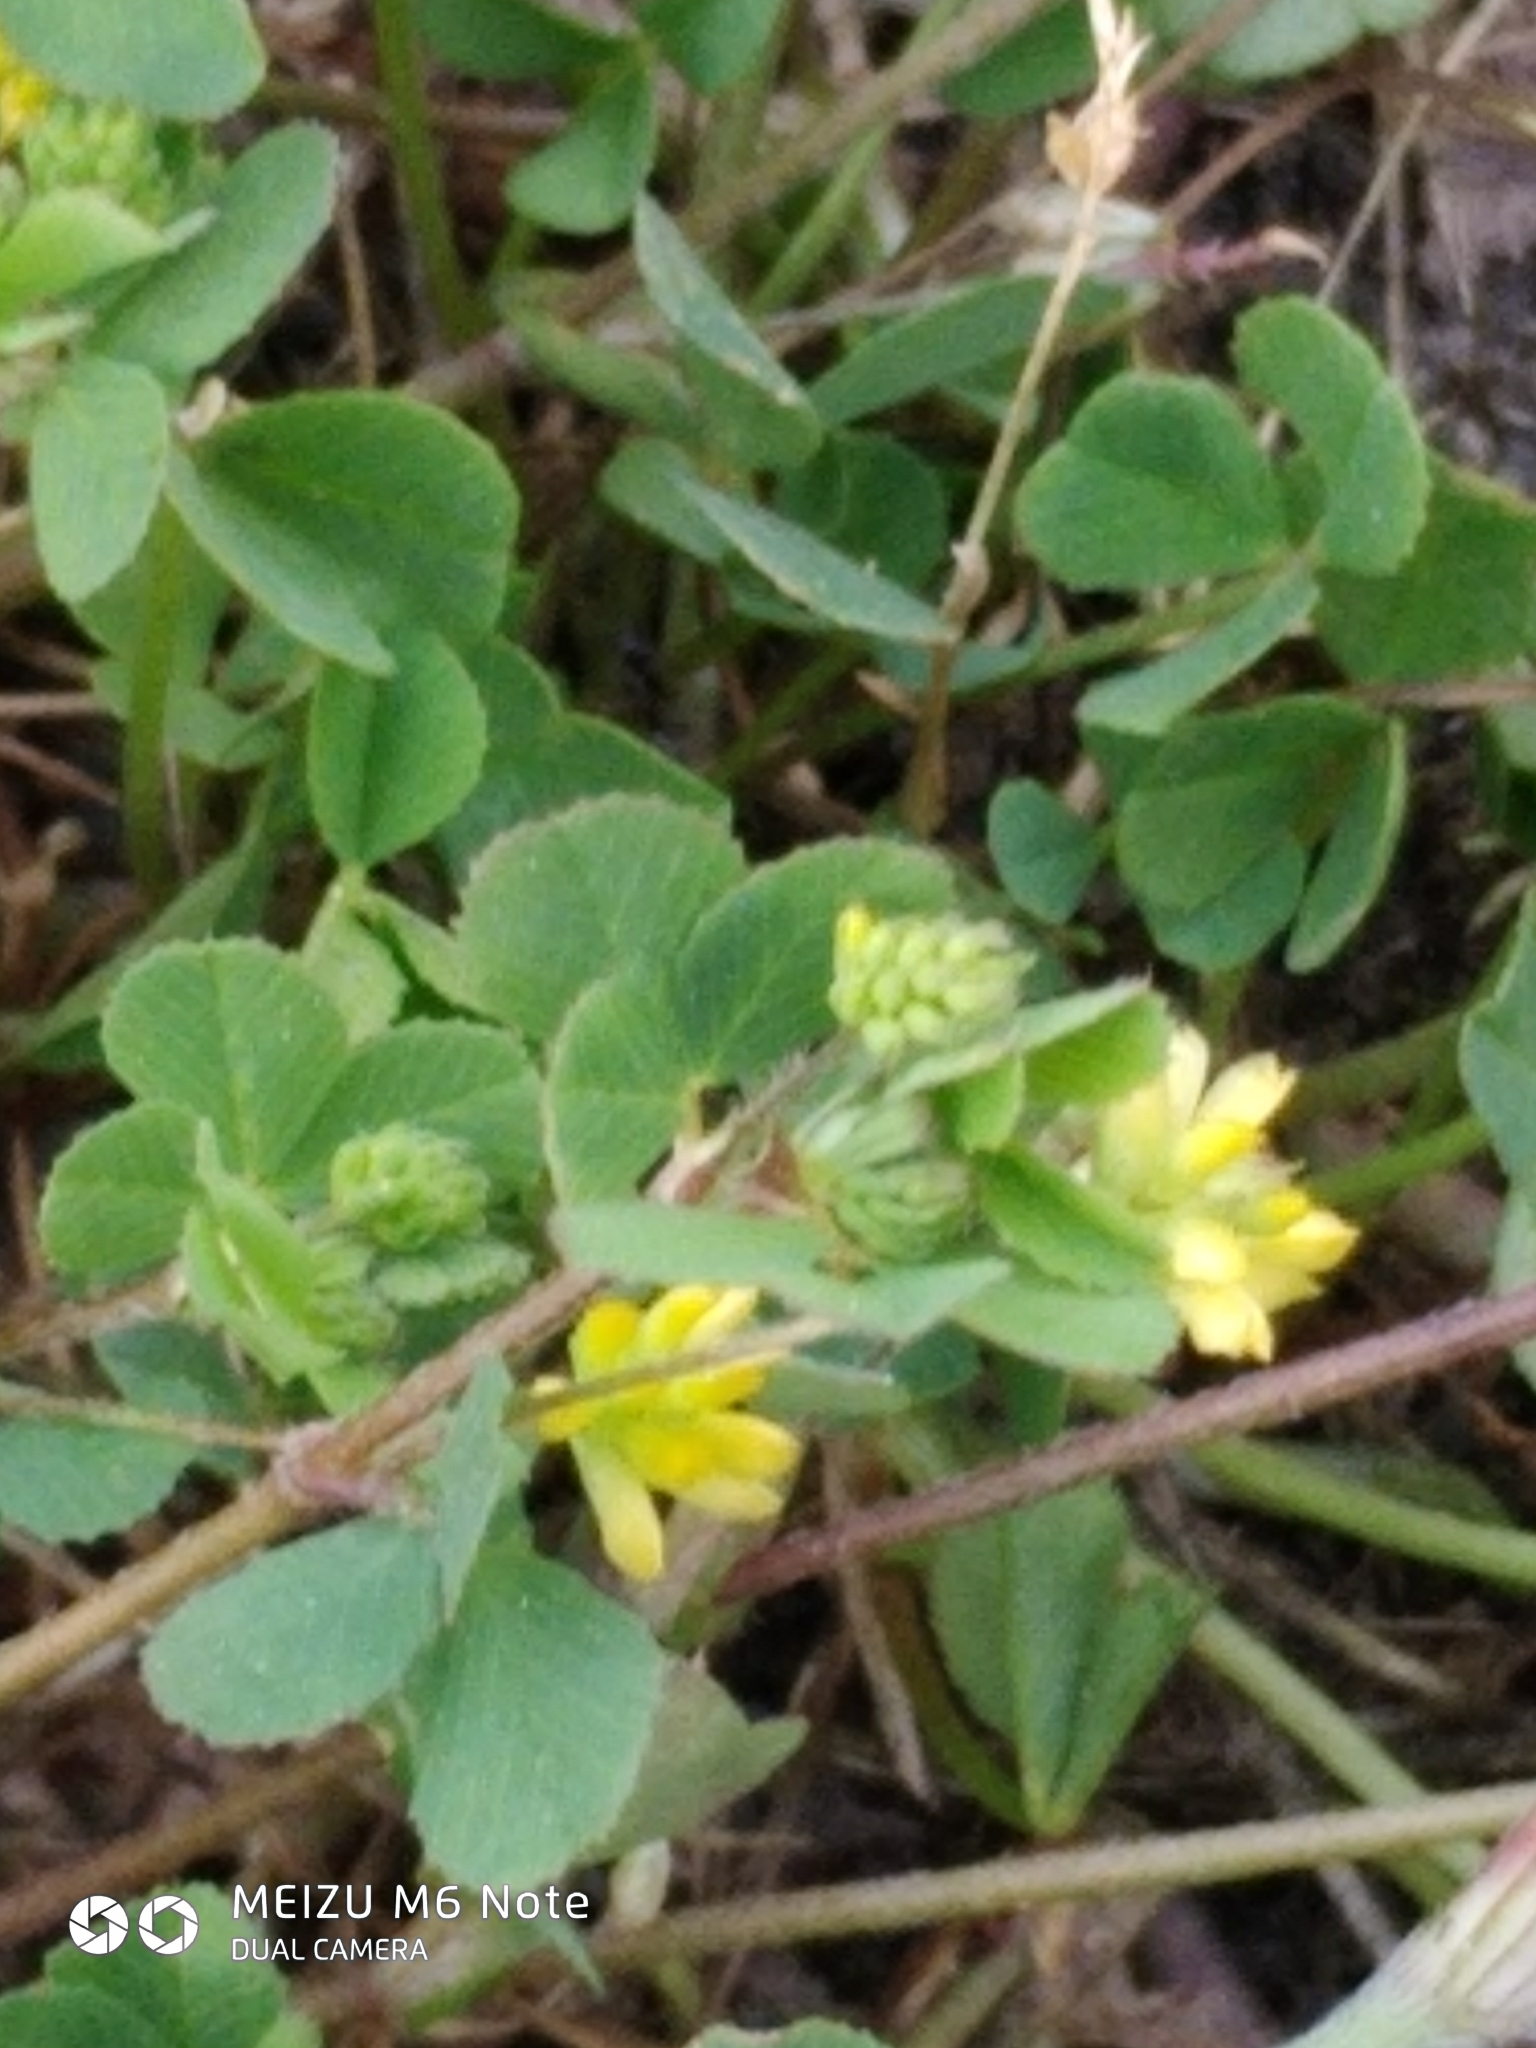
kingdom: Plantae
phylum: Tracheophyta
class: Magnoliopsida
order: Fabales
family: Fabaceae
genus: Trifolium
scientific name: Trifolium dubium
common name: Suckling clover
